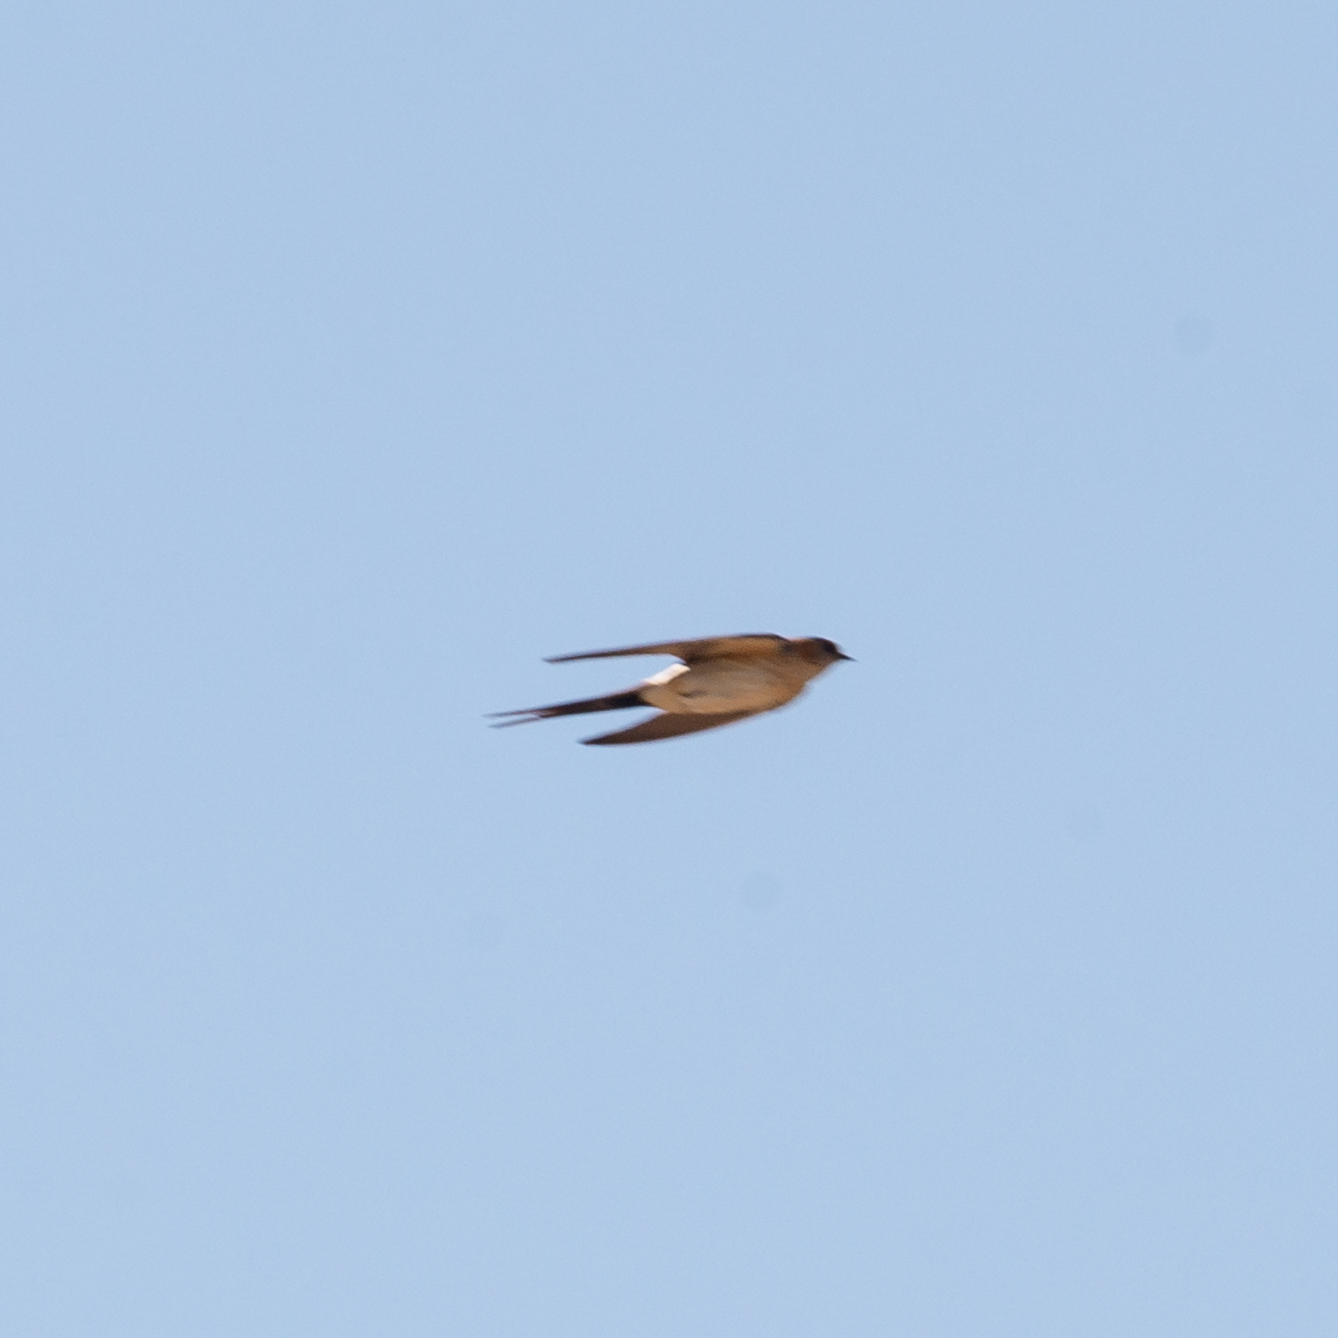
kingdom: Animalia
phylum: Chordata
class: Aves
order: Passeriformes
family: Hirundinidae
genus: Cecropis
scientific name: Cecropis daurica
